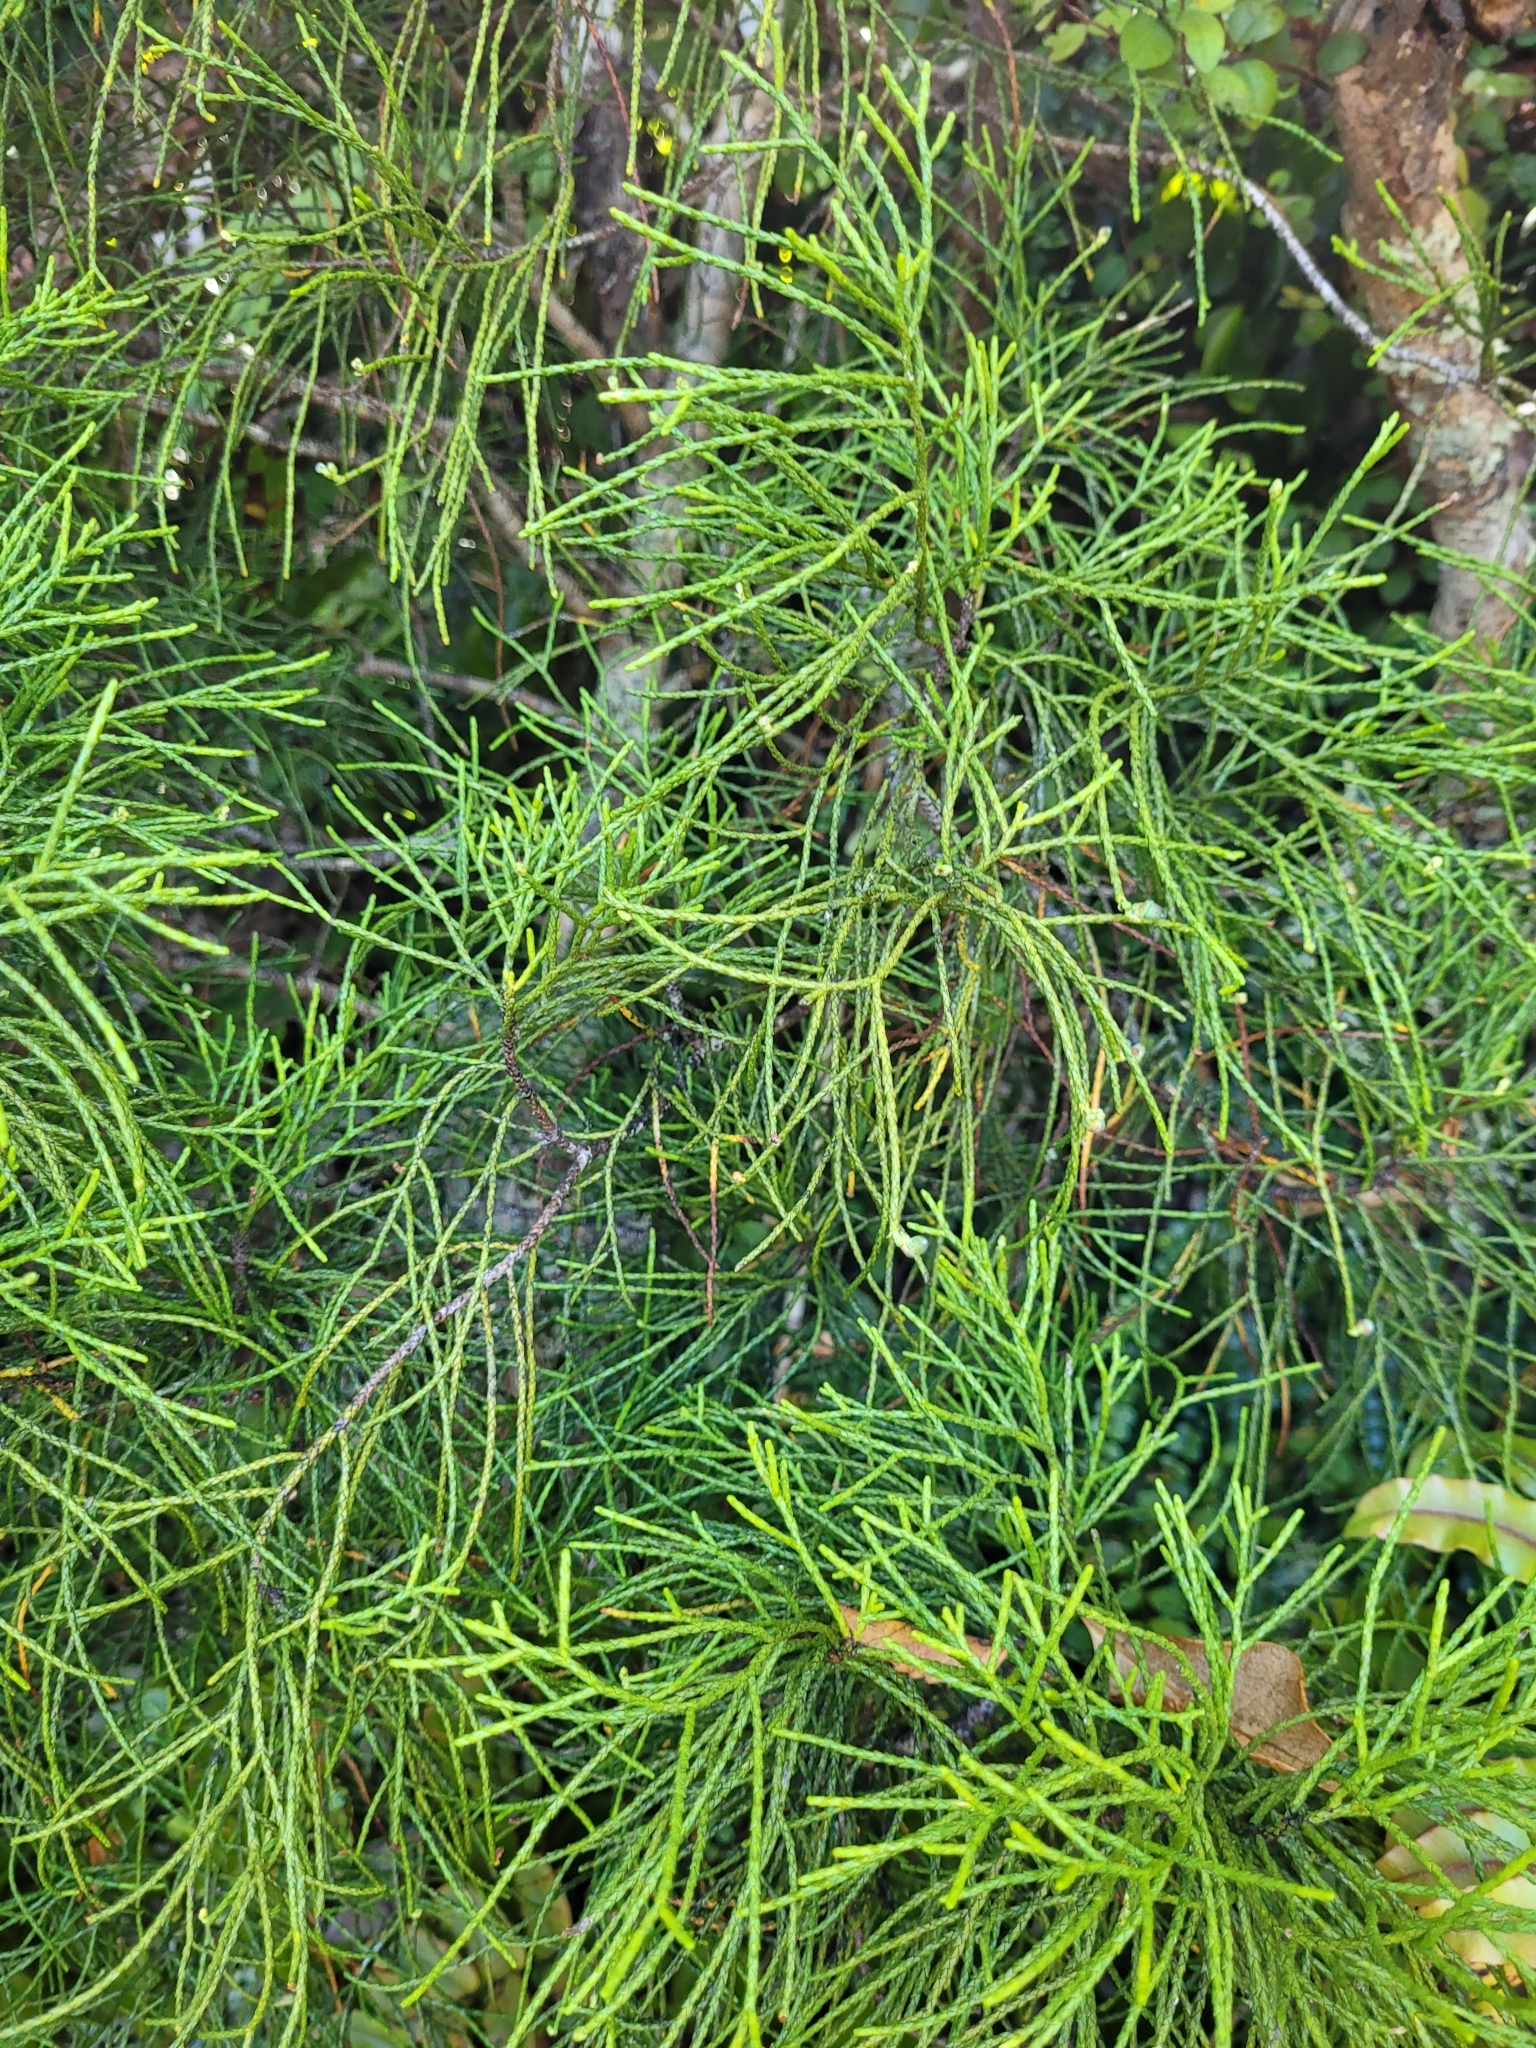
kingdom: Plantae
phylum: Tracheophyta
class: Pinopsida
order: Pinales
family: Podocarpaceae
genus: Manoao
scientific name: Manoao colensoi
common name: Silver pine
